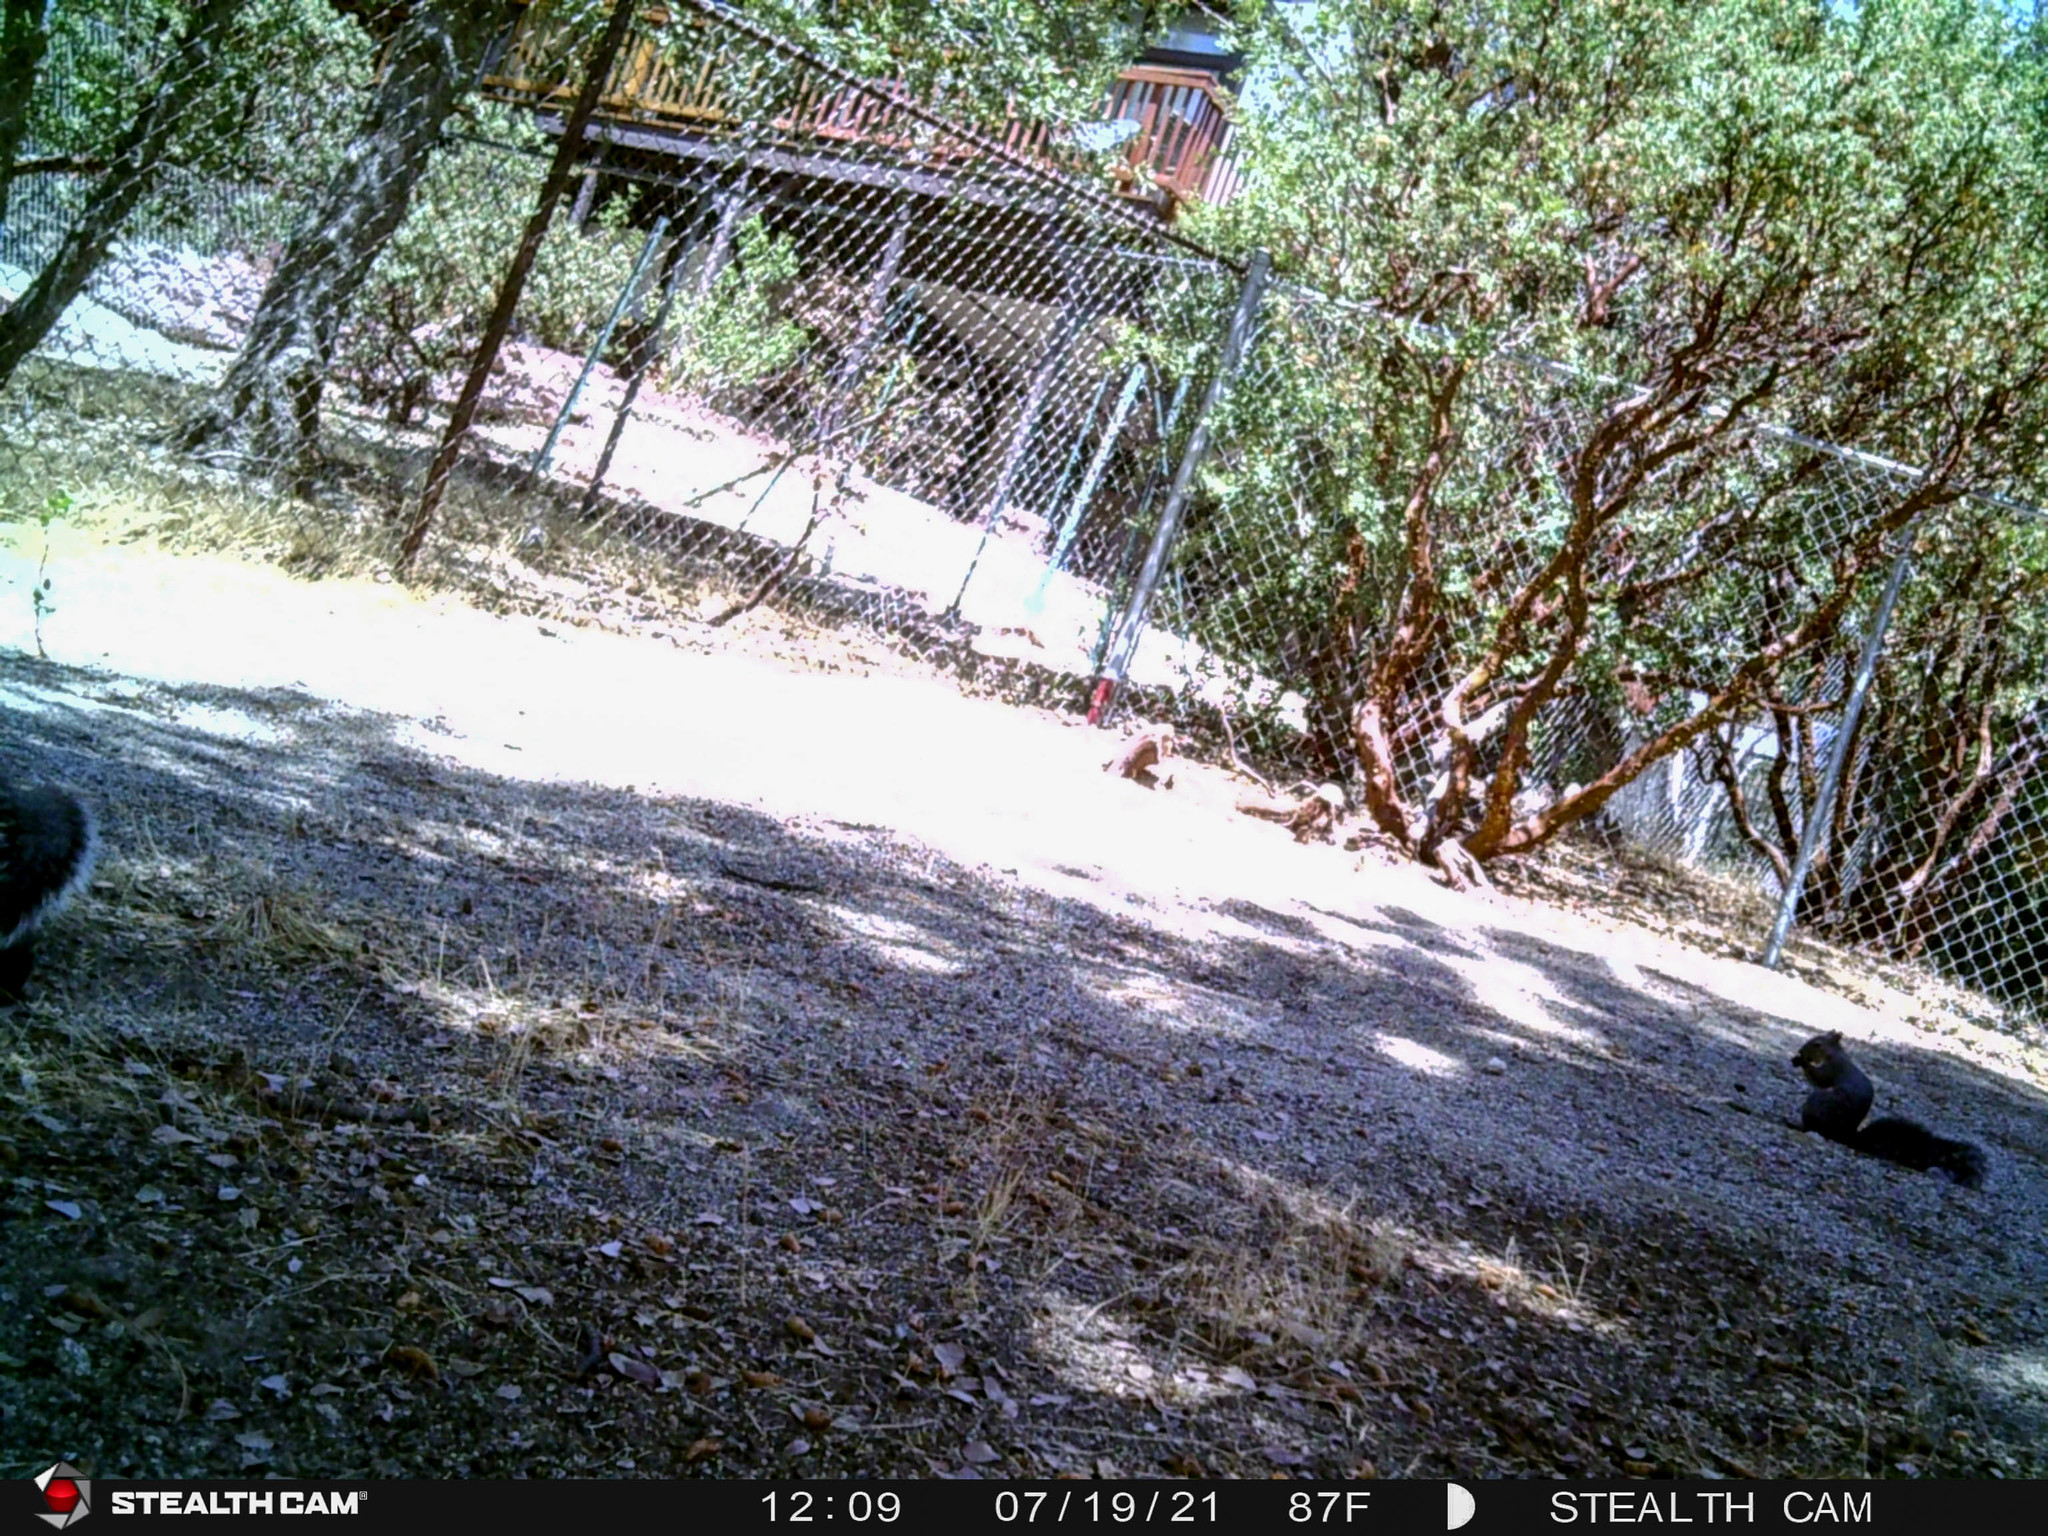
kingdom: Animalia
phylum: Chordata
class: Mammalia
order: Rodentia
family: Sciuridae
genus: Sciurus
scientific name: Sciurus griseus
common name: Western gray squirrel
